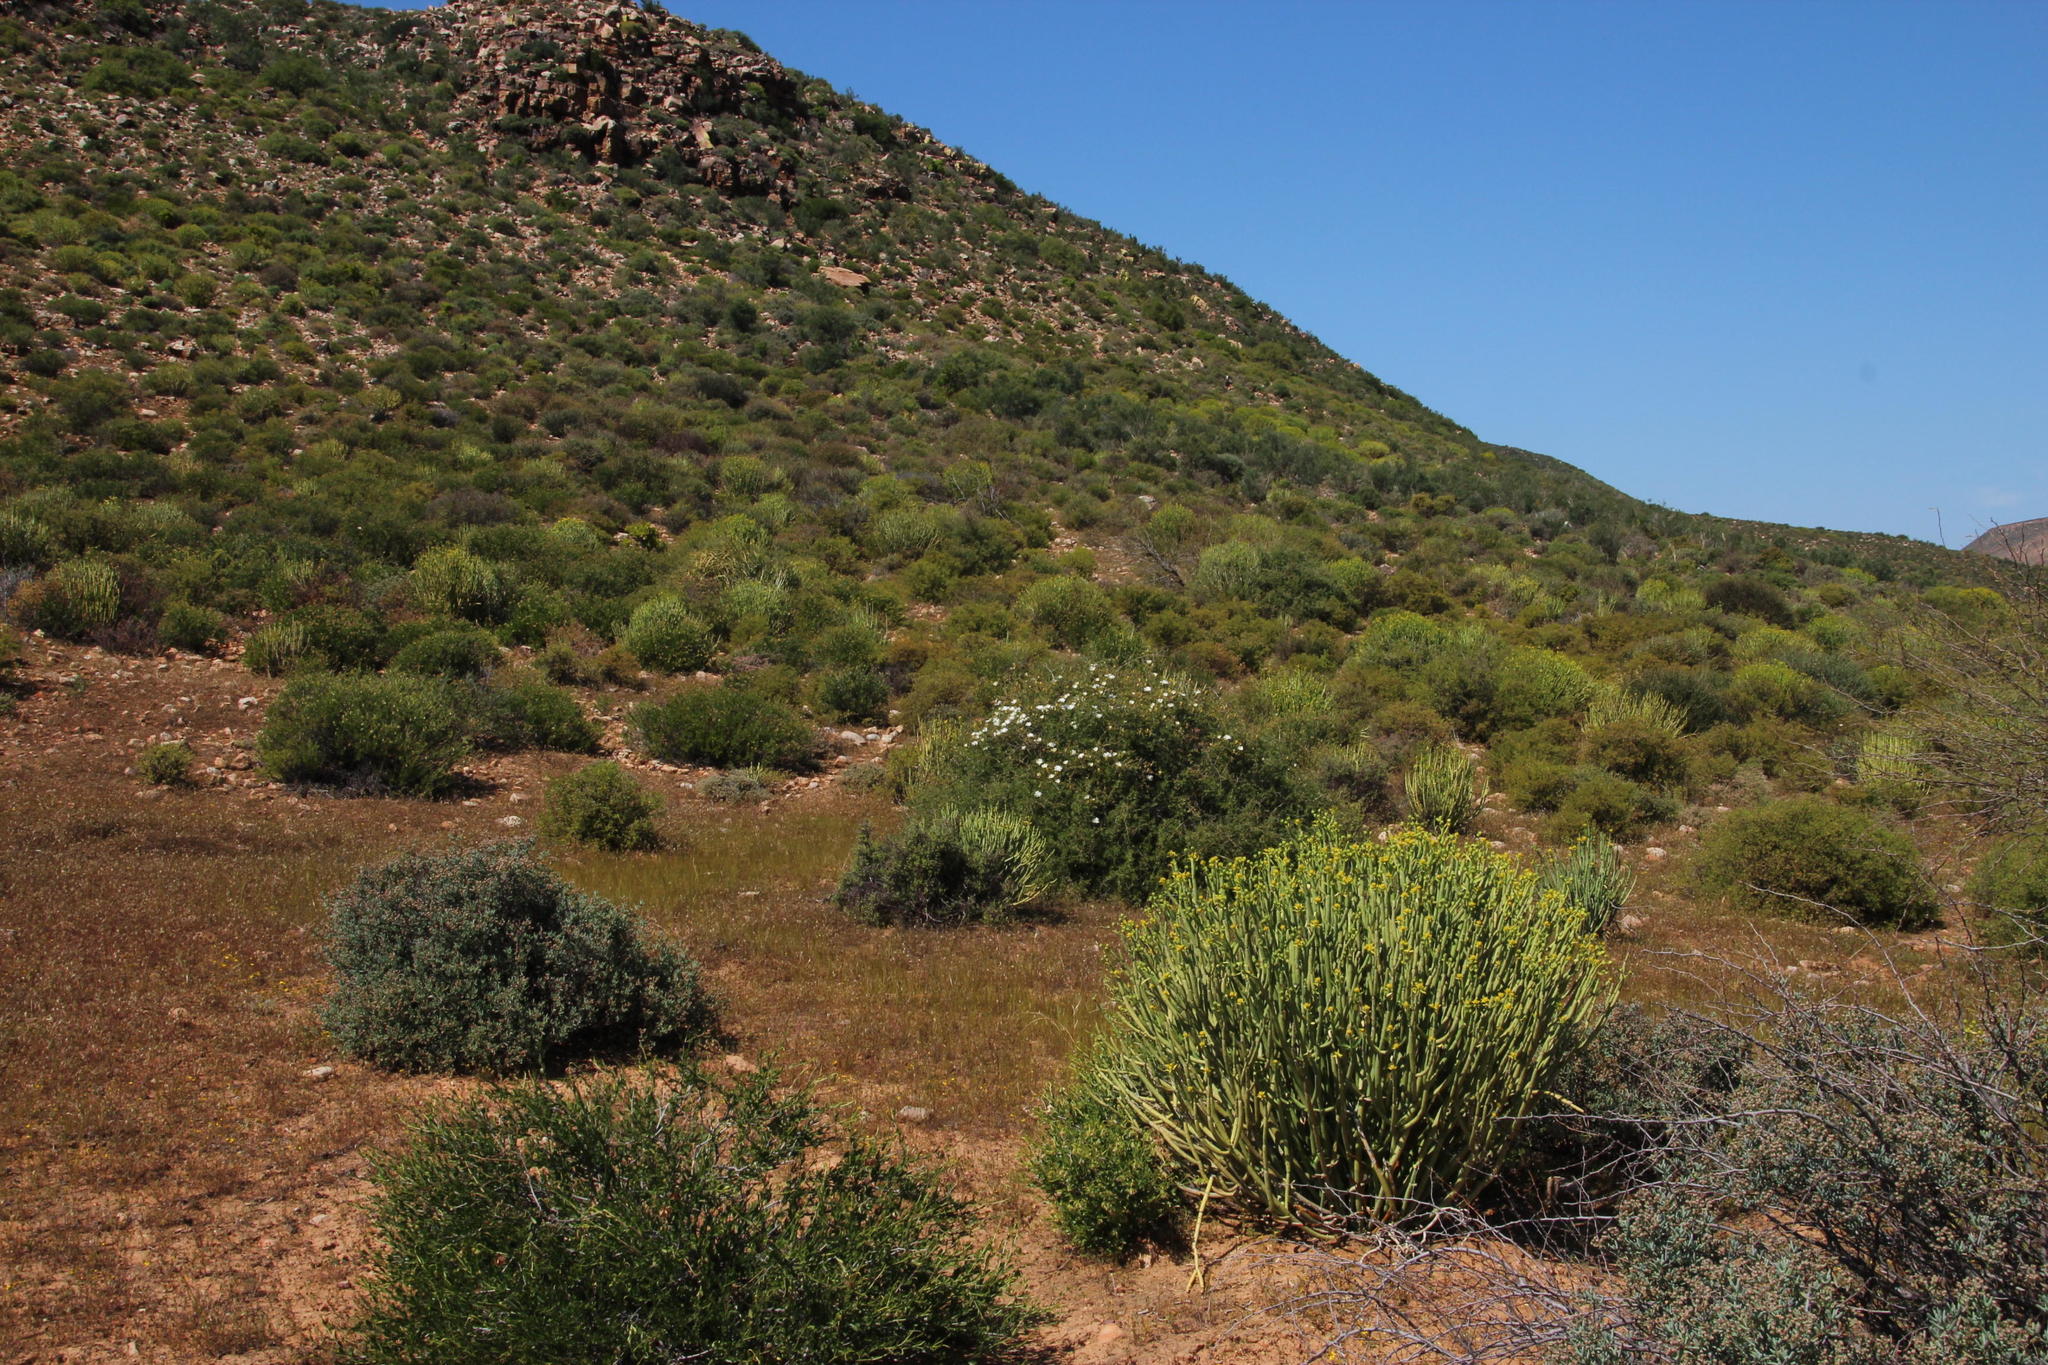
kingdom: Plantae
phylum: Tracheophyta
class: Magnoliopsida
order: Malpighiales
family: Euphorbiaceae
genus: Euphorbia
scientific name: Euphorbia mauritanica
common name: Jackal's-food
